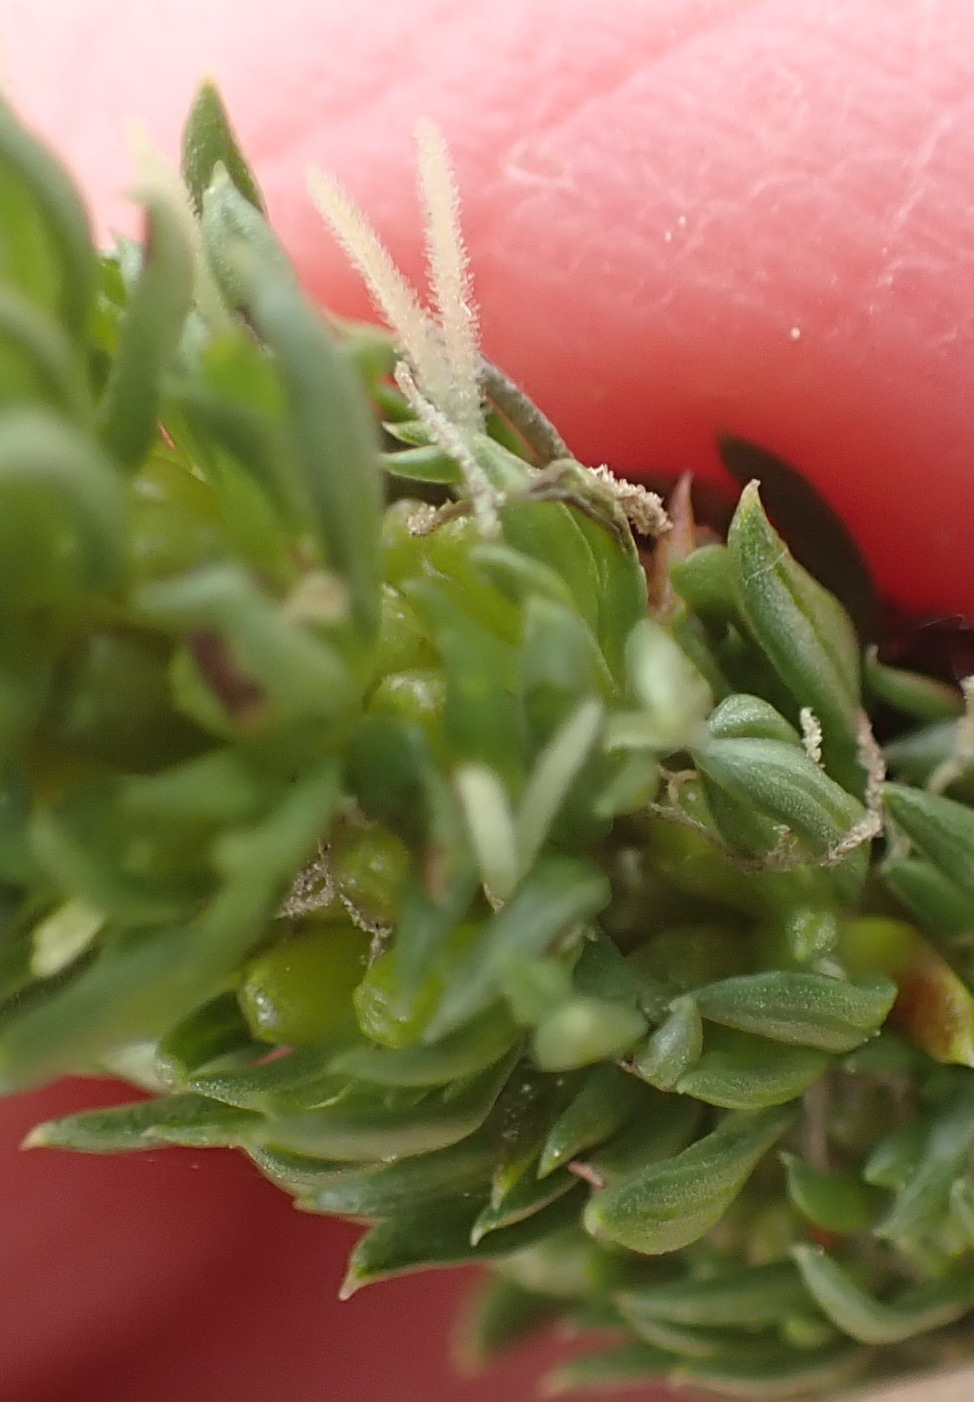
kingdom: Plantae
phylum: Tracheophyta
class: Magnoliopsida
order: Gentianales
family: Rubiaceae
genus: Anthospermum
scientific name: Anthospermum aethiopicum
